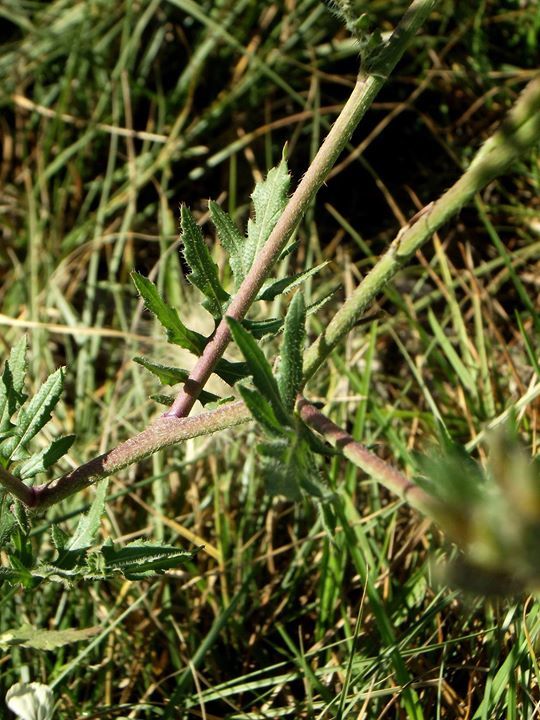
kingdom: Plantae
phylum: Tracheophyta
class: Magnoliopsida
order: Brassicales
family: Brassicaceae
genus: Eruca
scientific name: Eruca vesicaria
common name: Garden rocket
